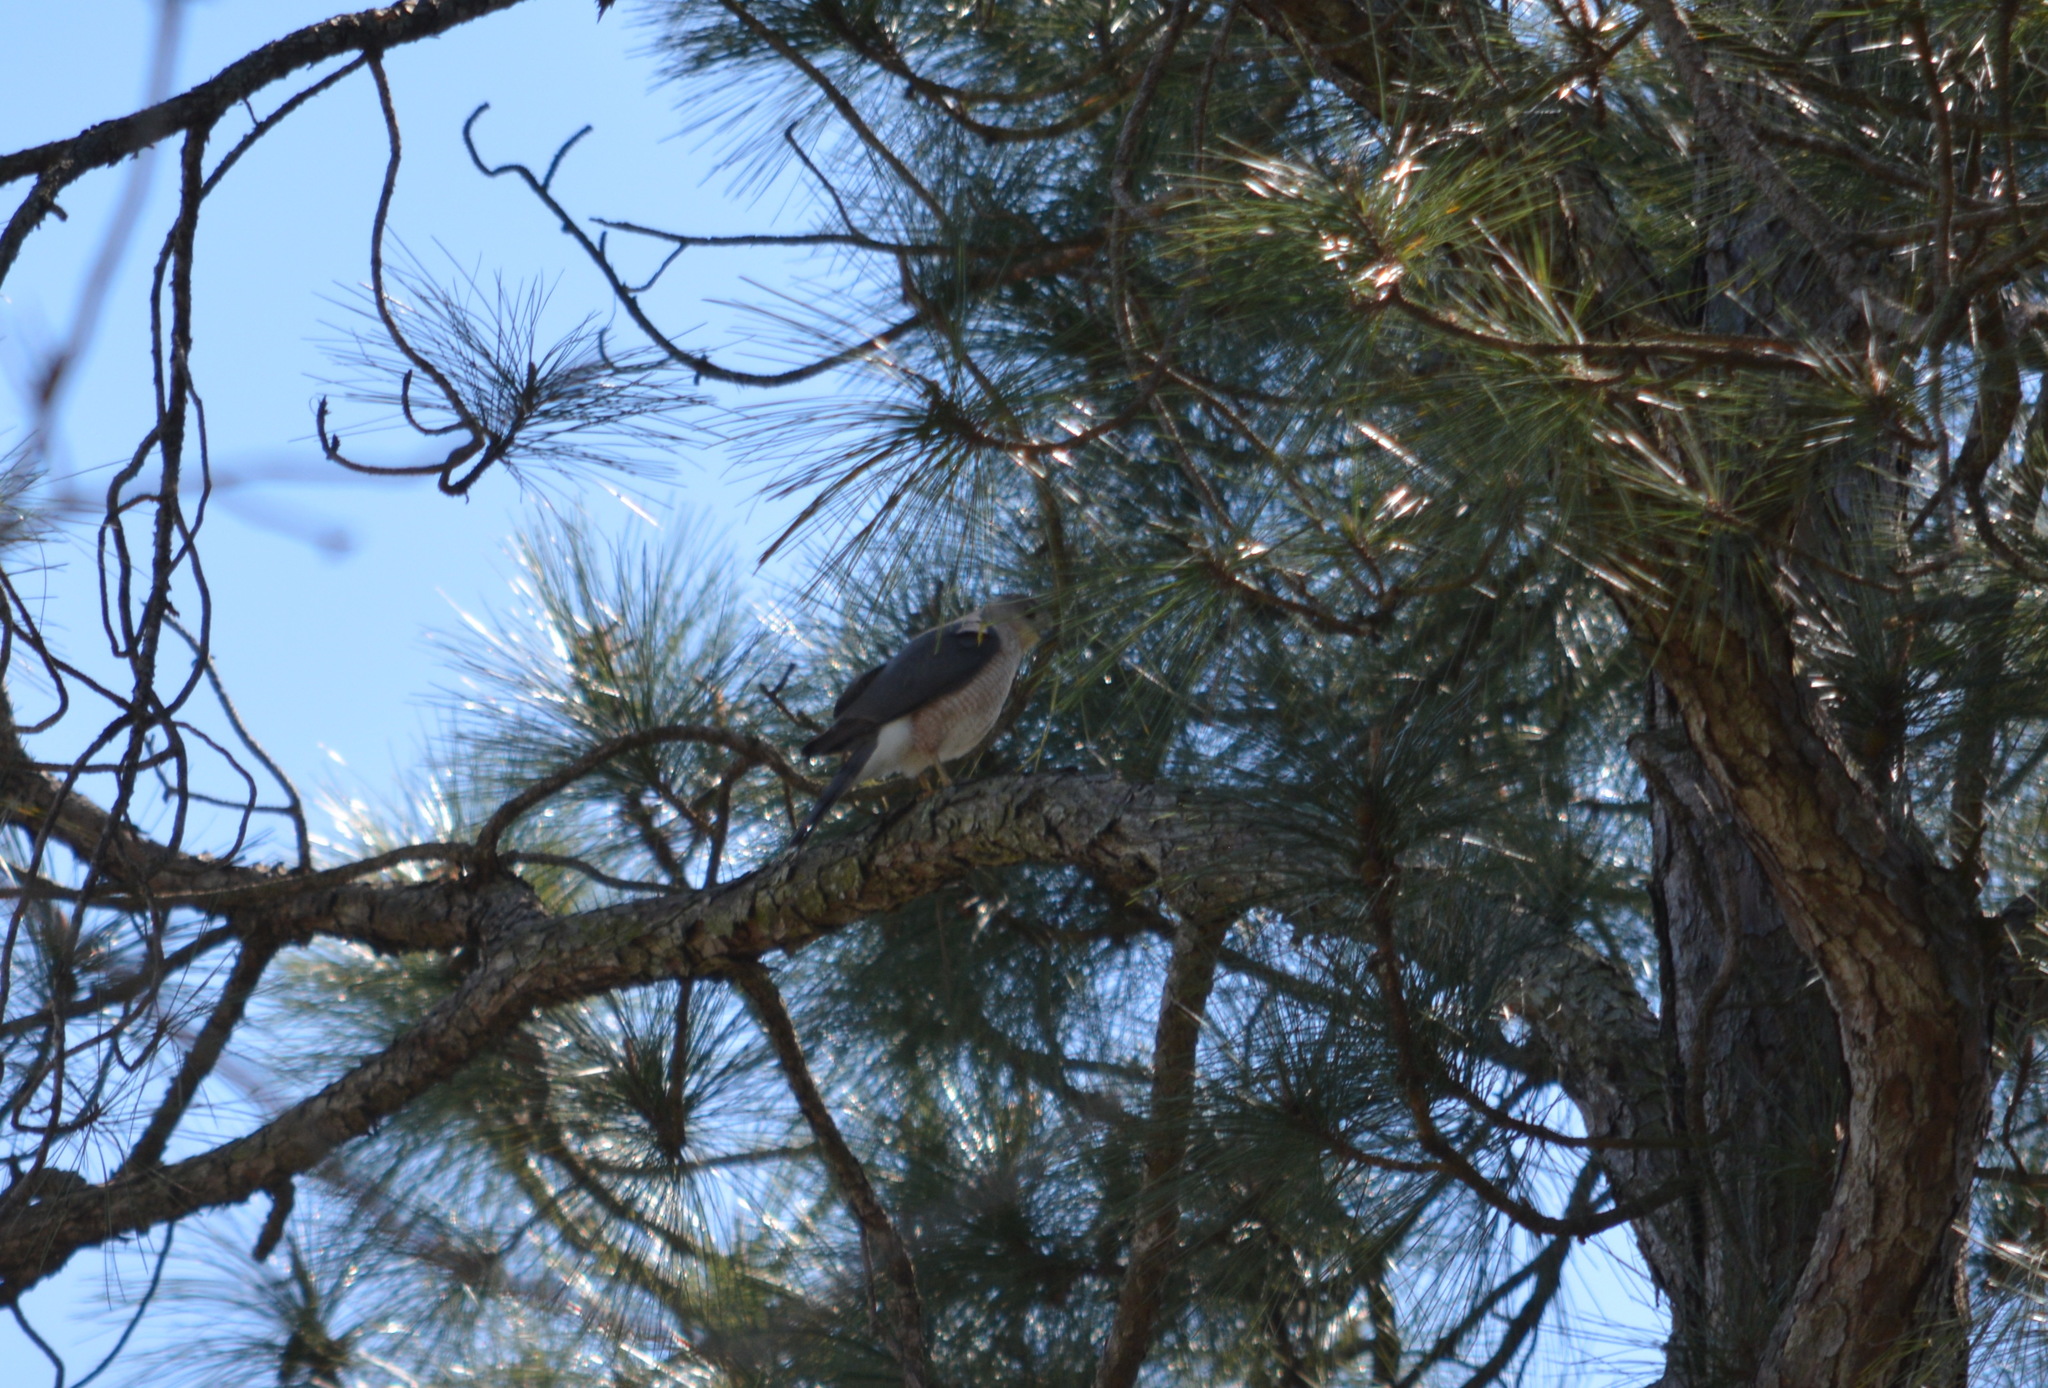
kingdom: Animalia
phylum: Chordata
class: Aves
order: Accipitriformes
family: Accipitridae
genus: Accipiter
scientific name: Accipiter cooperii
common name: Cooper's hawk
